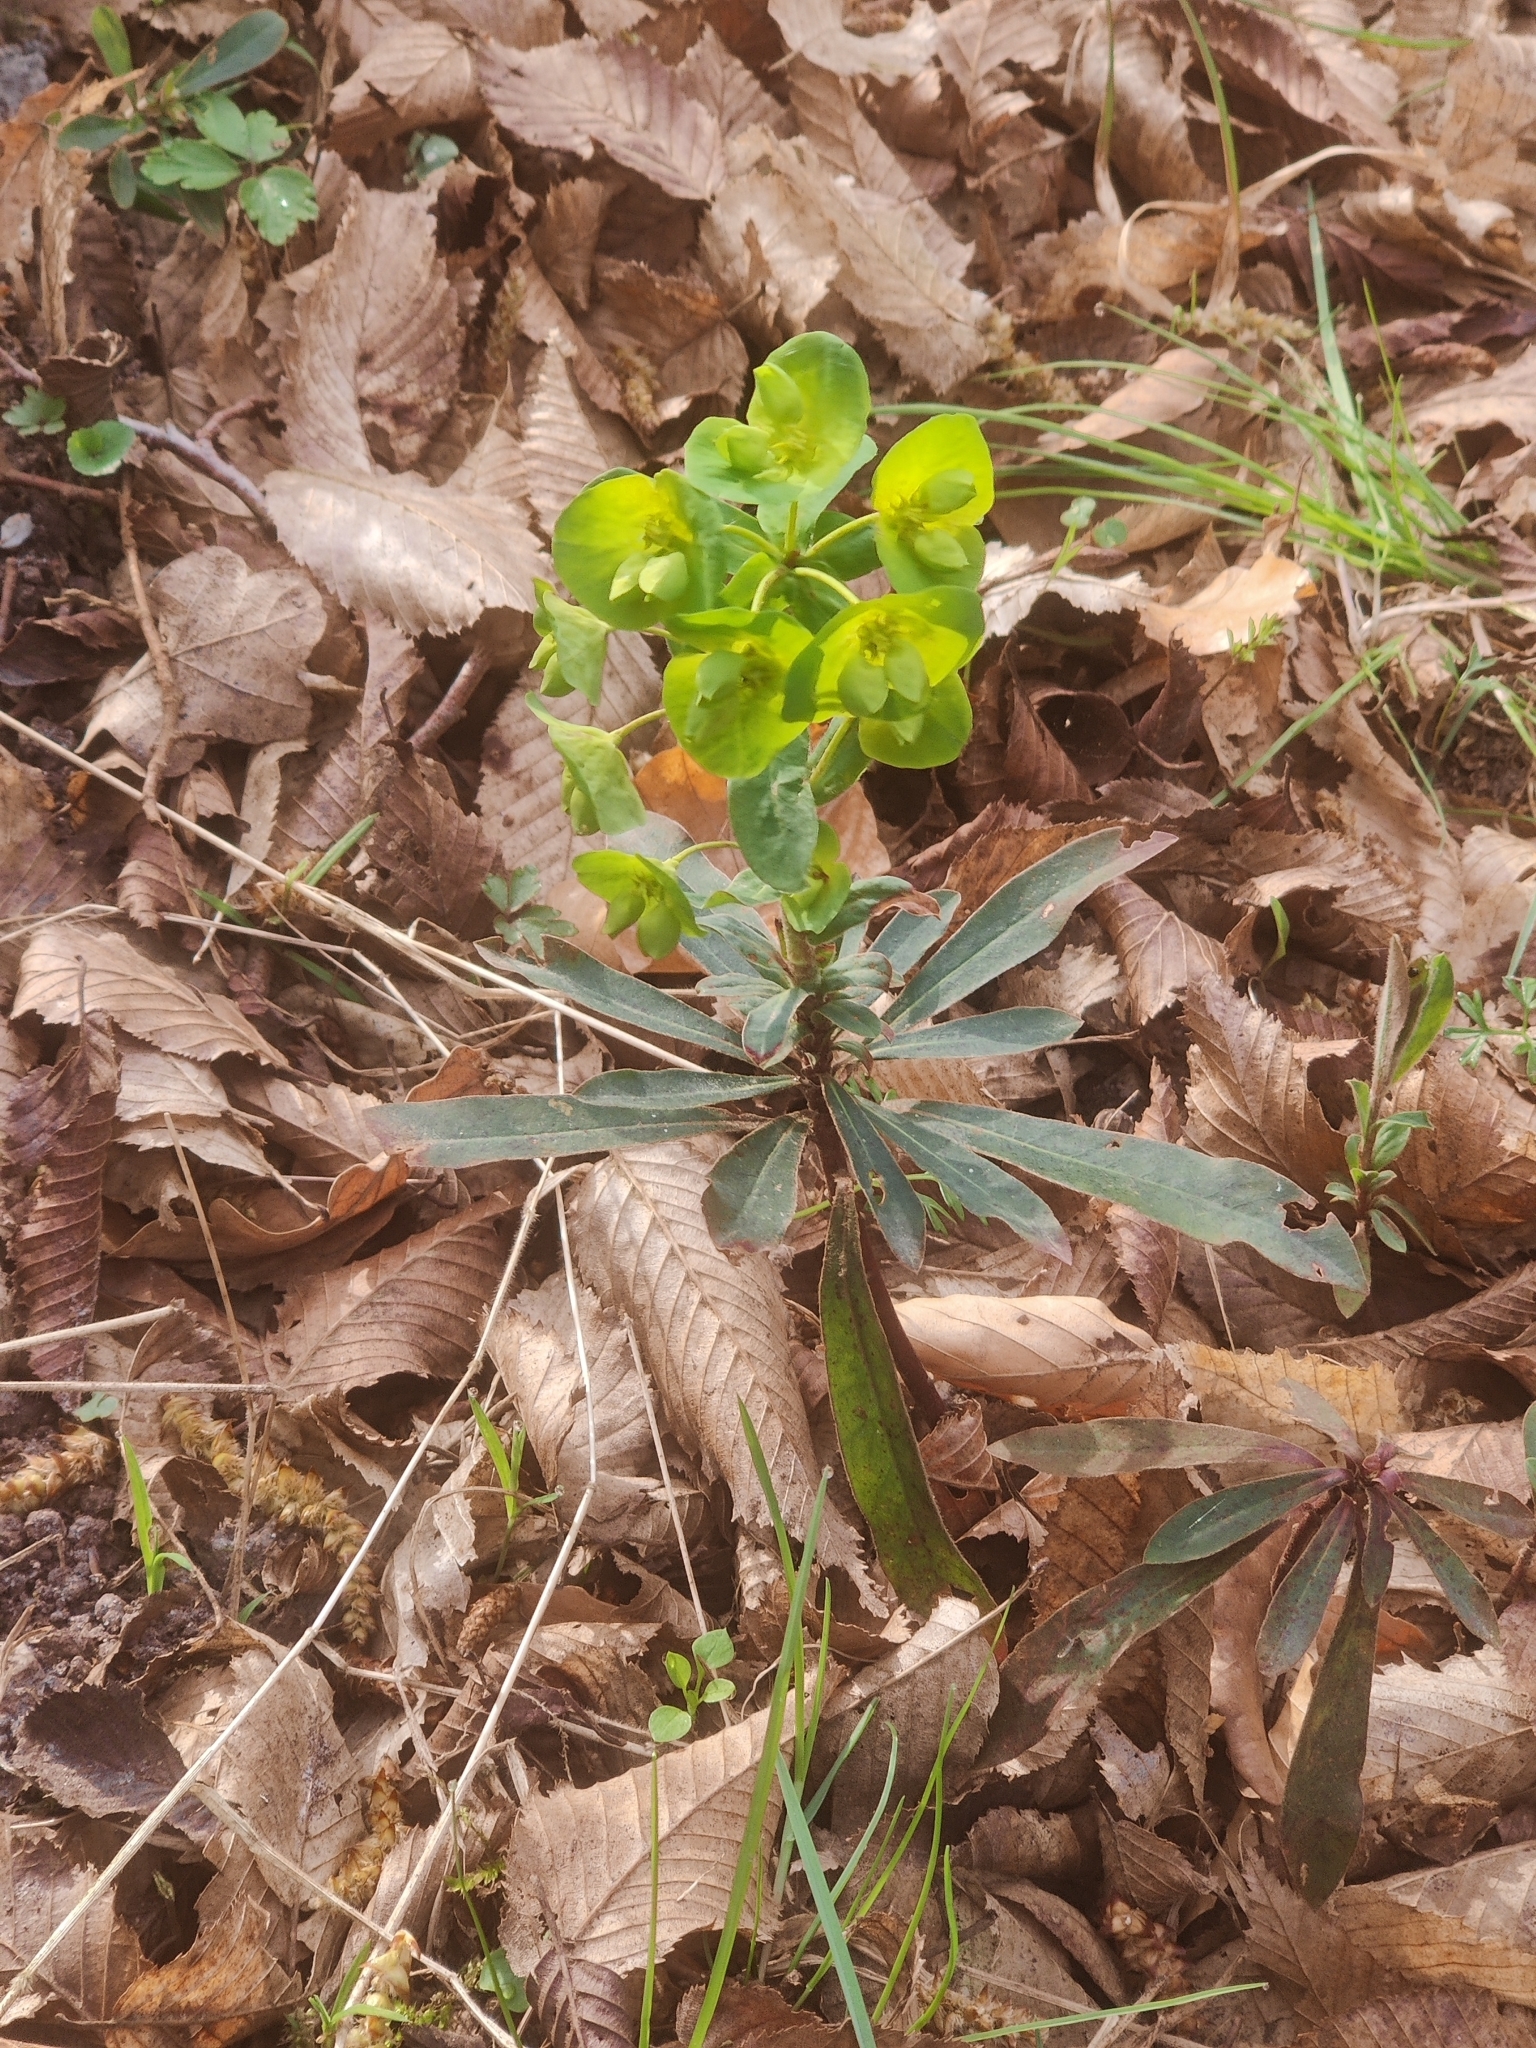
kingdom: Plantae
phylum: Tracheophyta
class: Magnoliopsida
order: Malpighiales
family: Euphorbiaceae
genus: Euphorbia
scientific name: Euphorbia amygdaloides
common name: Wood spurge
